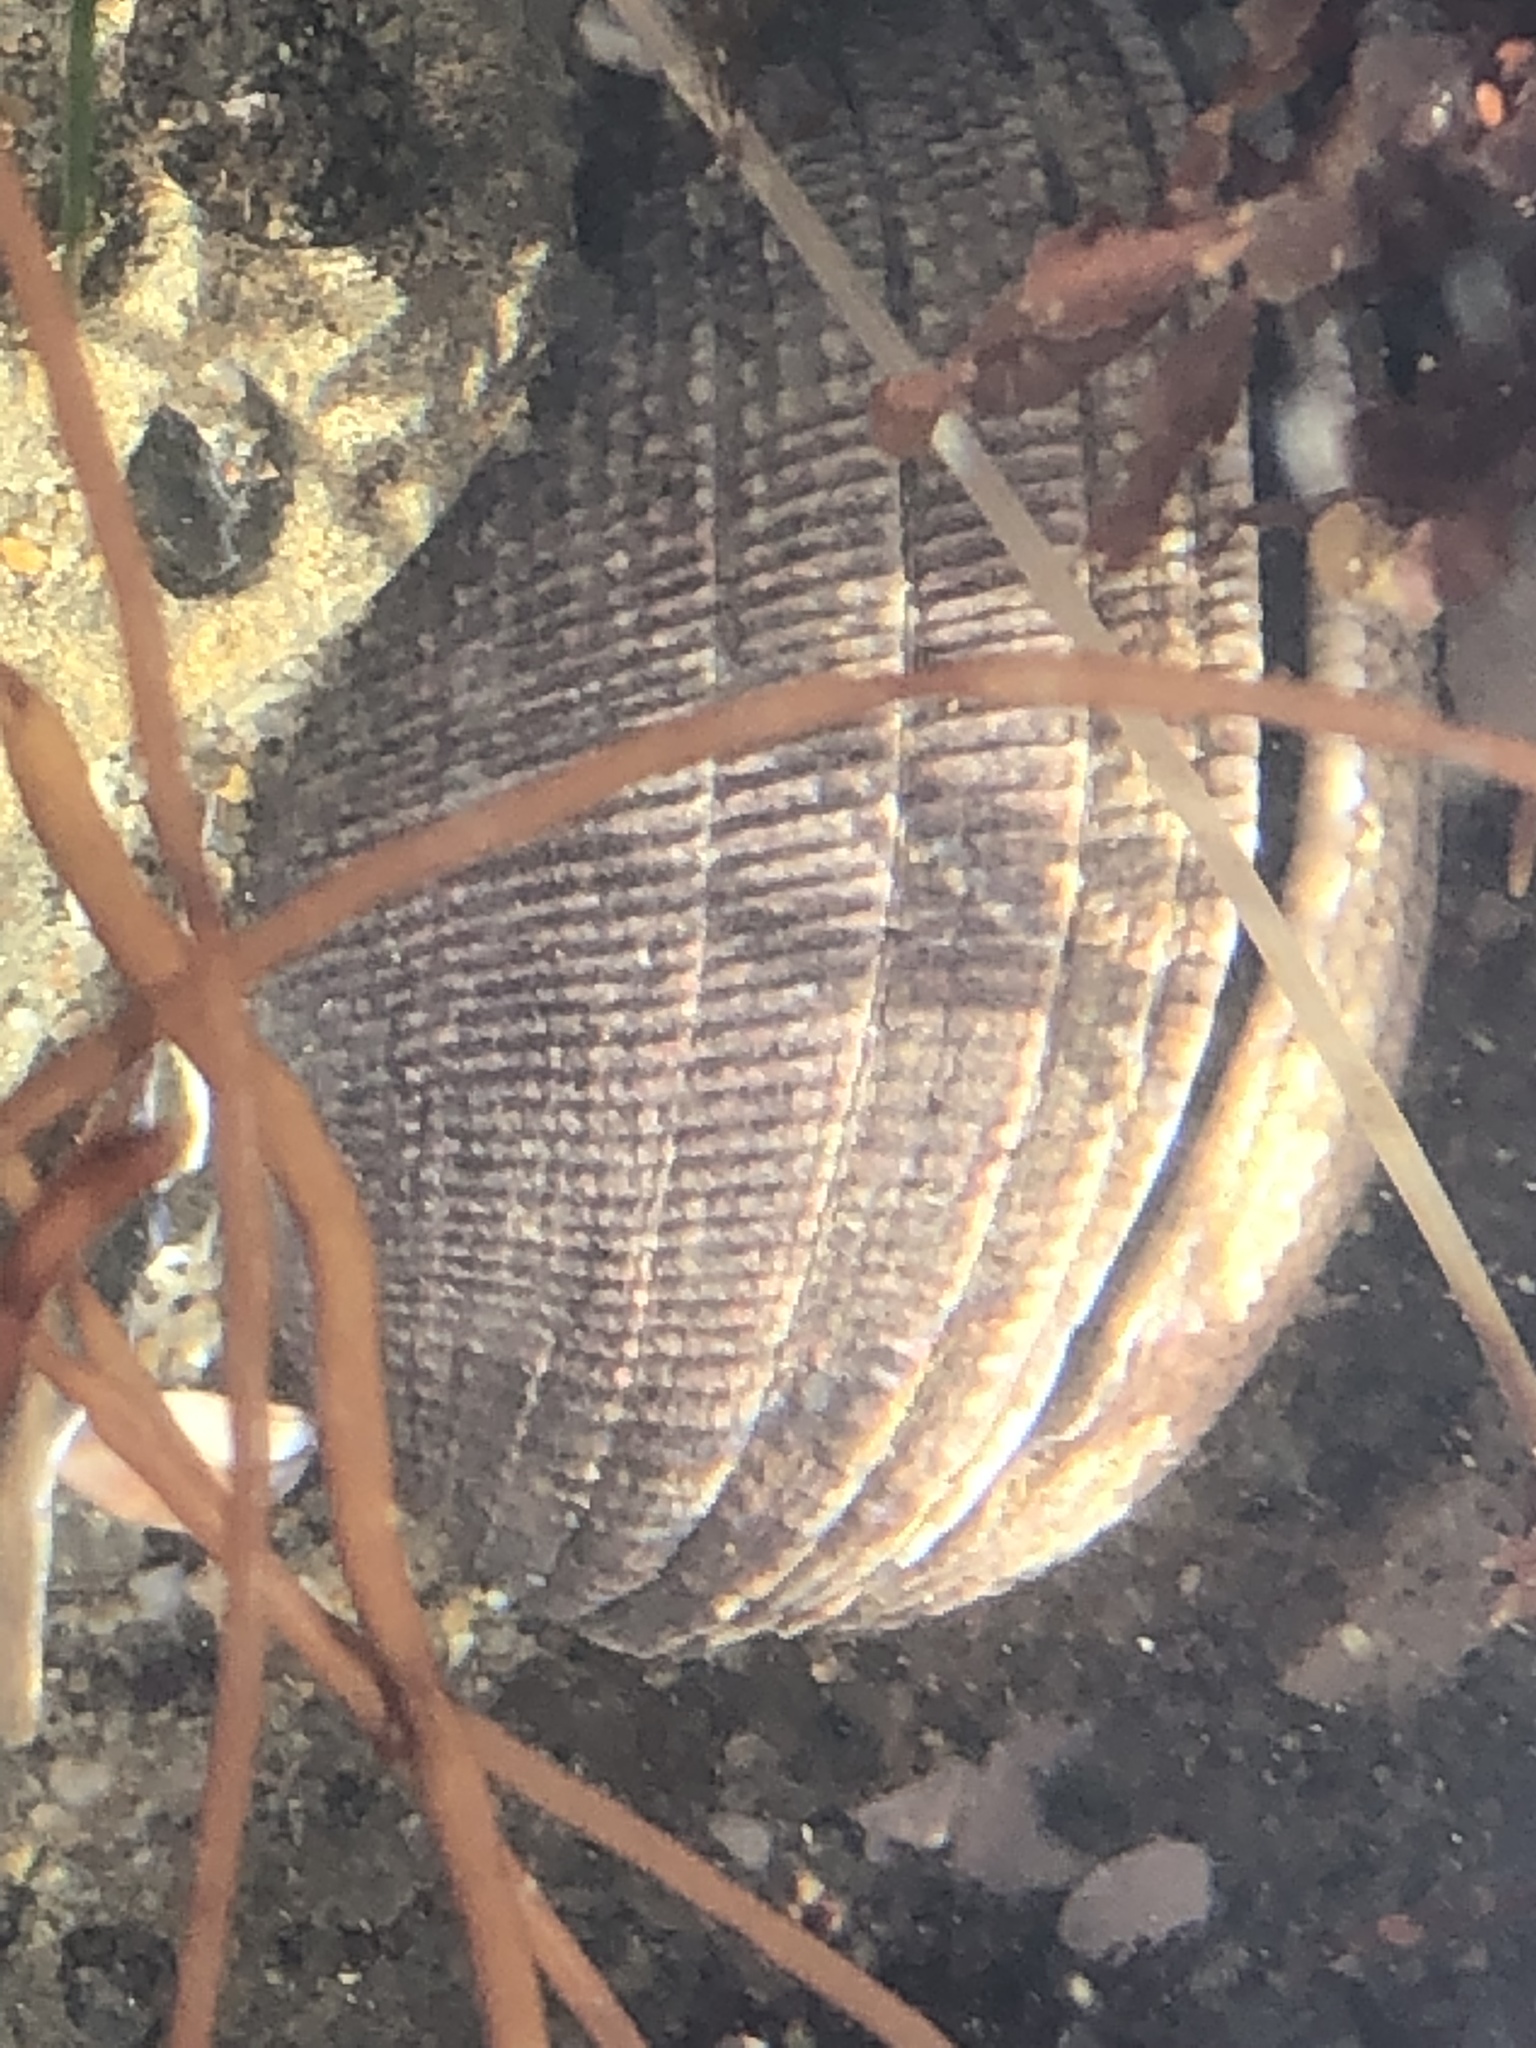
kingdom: Animalia
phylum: Mollusca
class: Bivalvia
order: Venerida
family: Veneridae
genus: Leukoma
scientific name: Leukoma staminea
